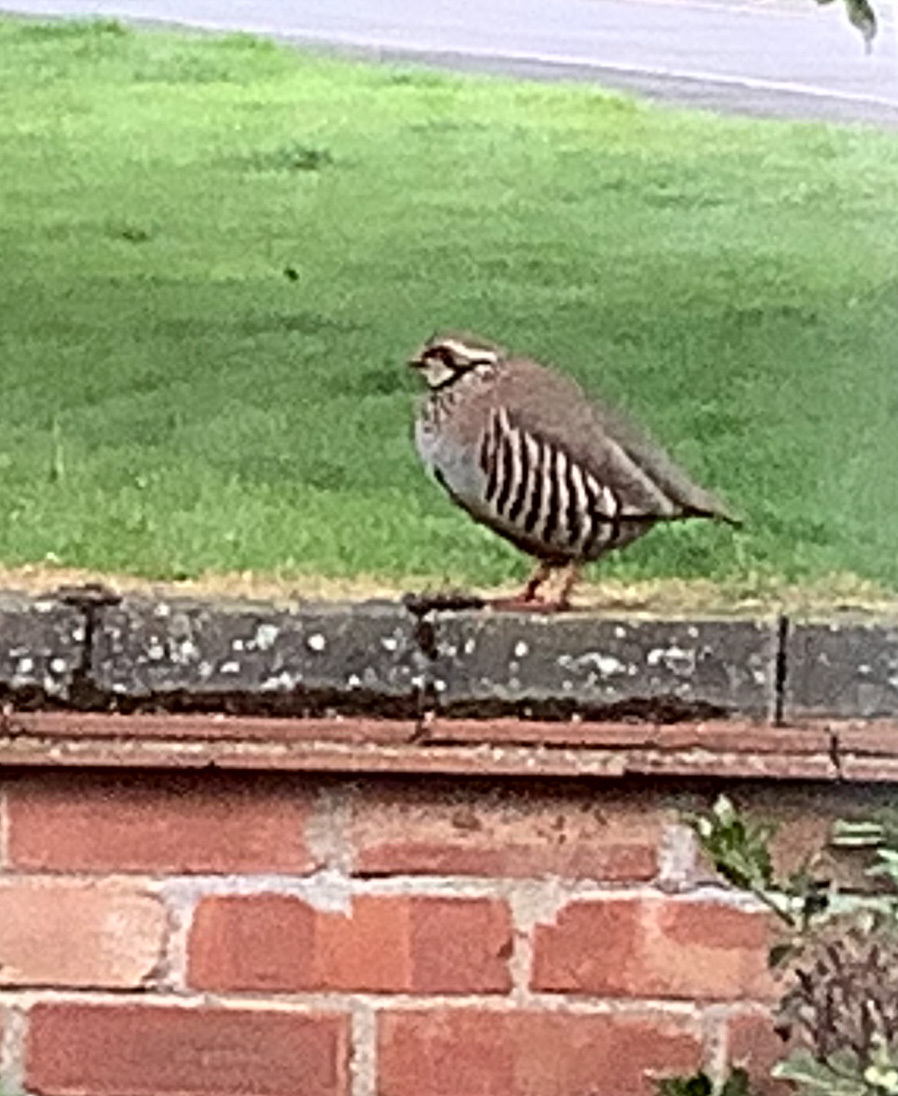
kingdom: Animalia
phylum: Chordata
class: Aves
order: Galliformes
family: Phasianidae
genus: Alectoris
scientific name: Alectoris rufa
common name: Red-legged partridge
